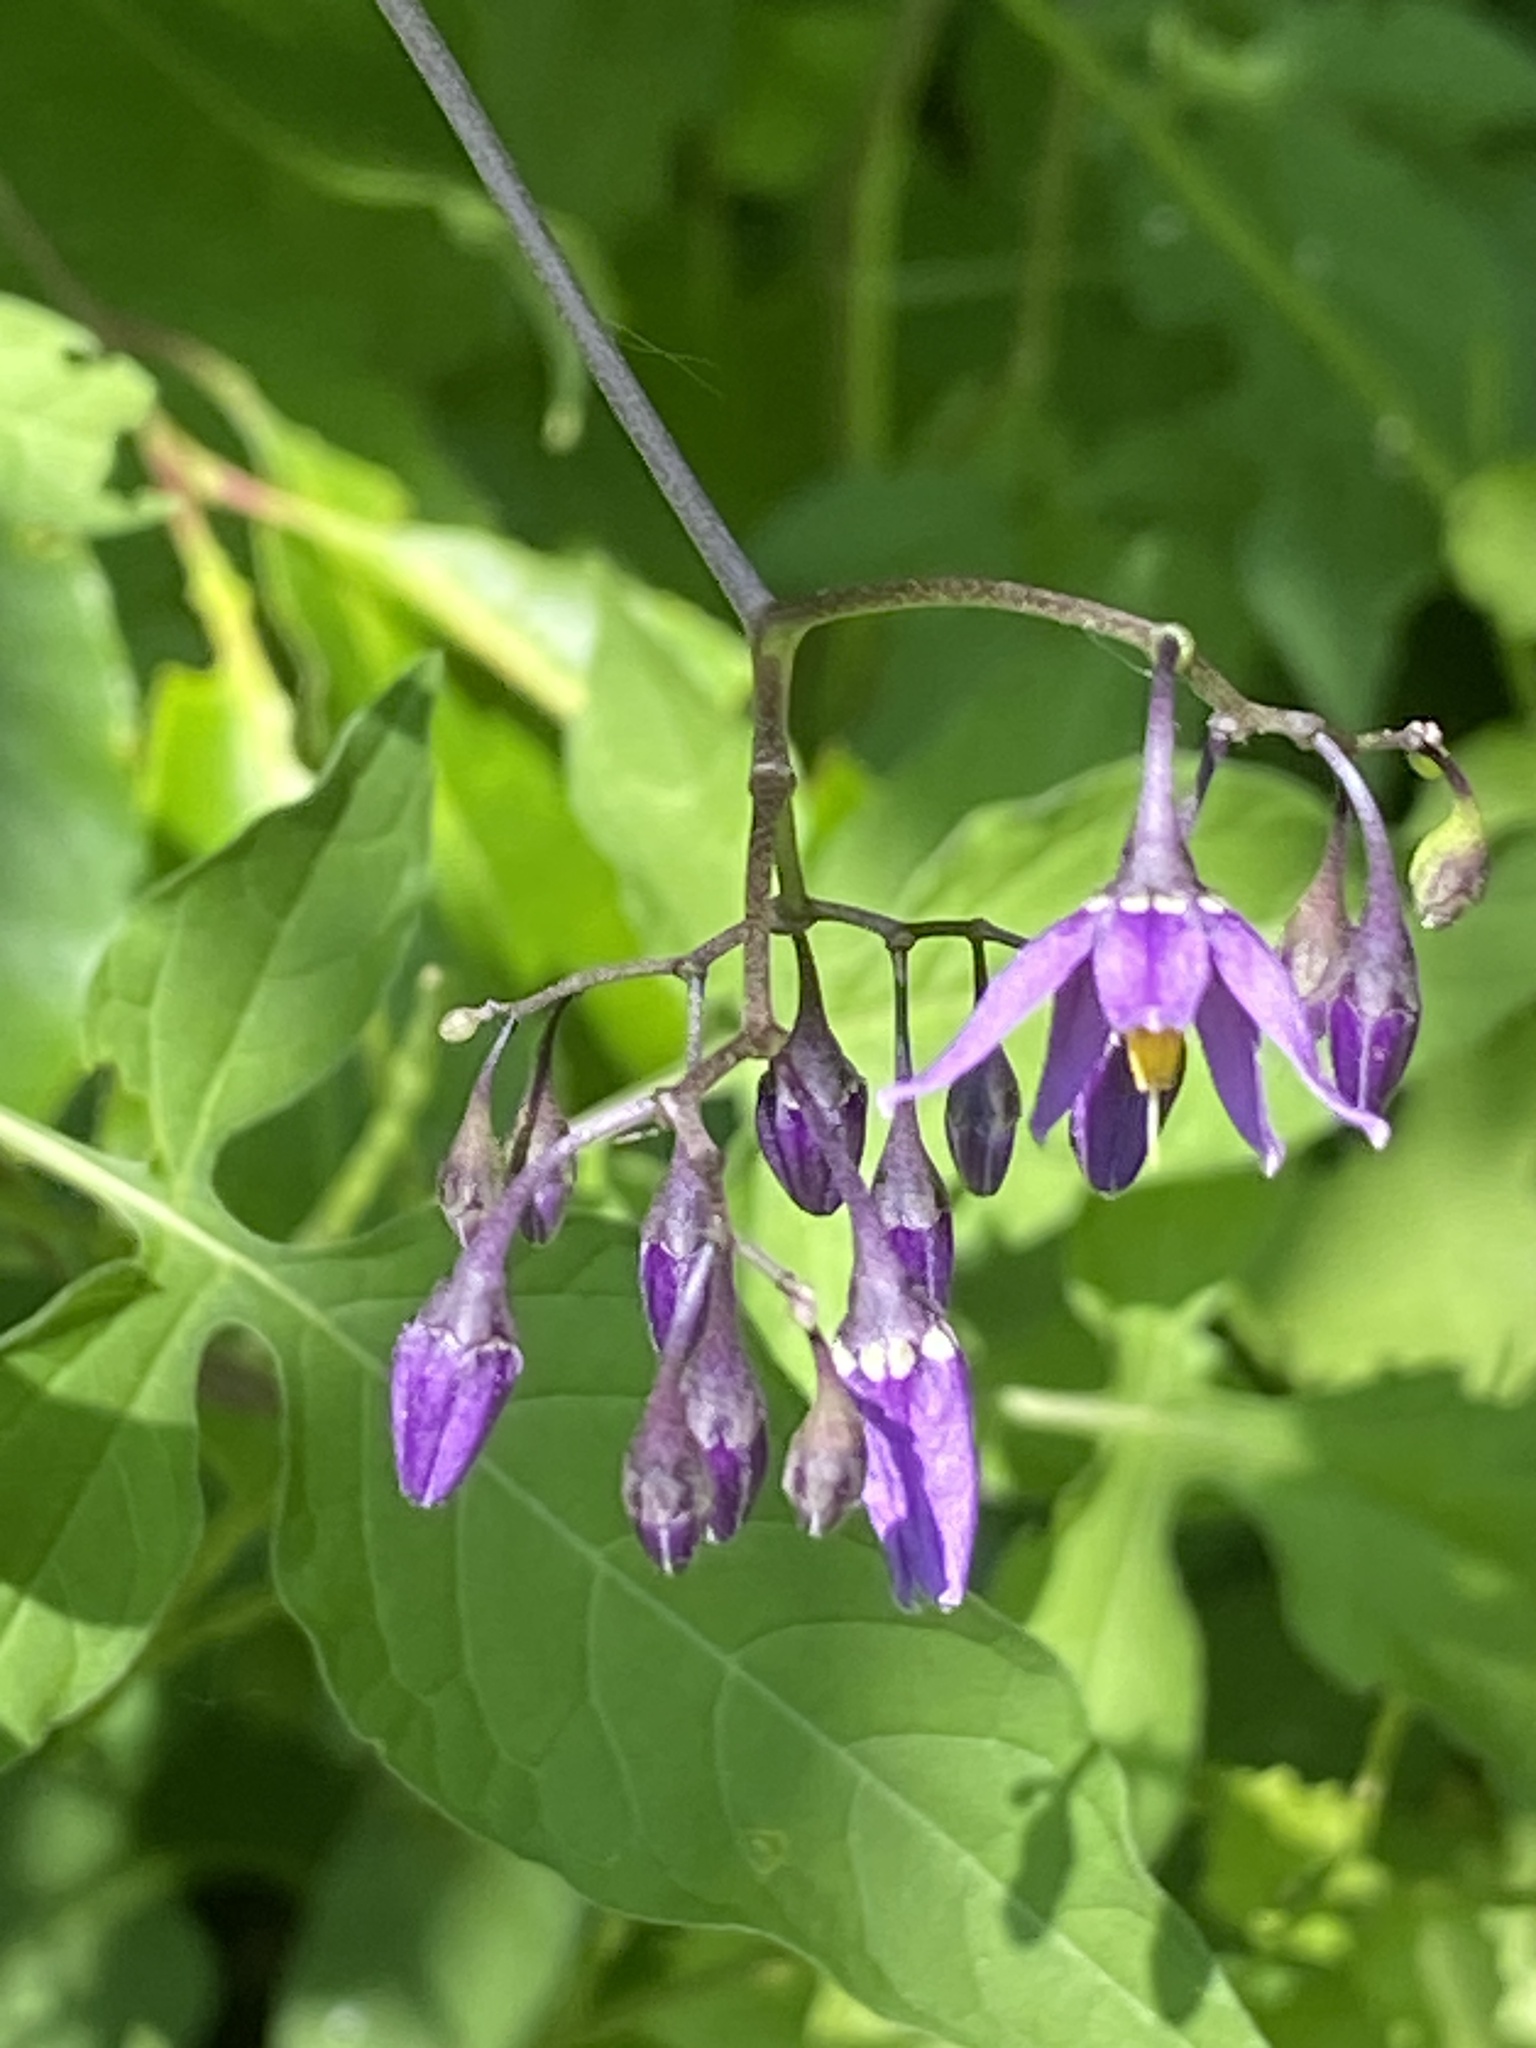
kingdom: Plantae
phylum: Tracheophyta
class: Magnoliopsida
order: Solanales
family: Solanaceae
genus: Solanum
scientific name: Solanum dulcamara
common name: Climbing nightshade
